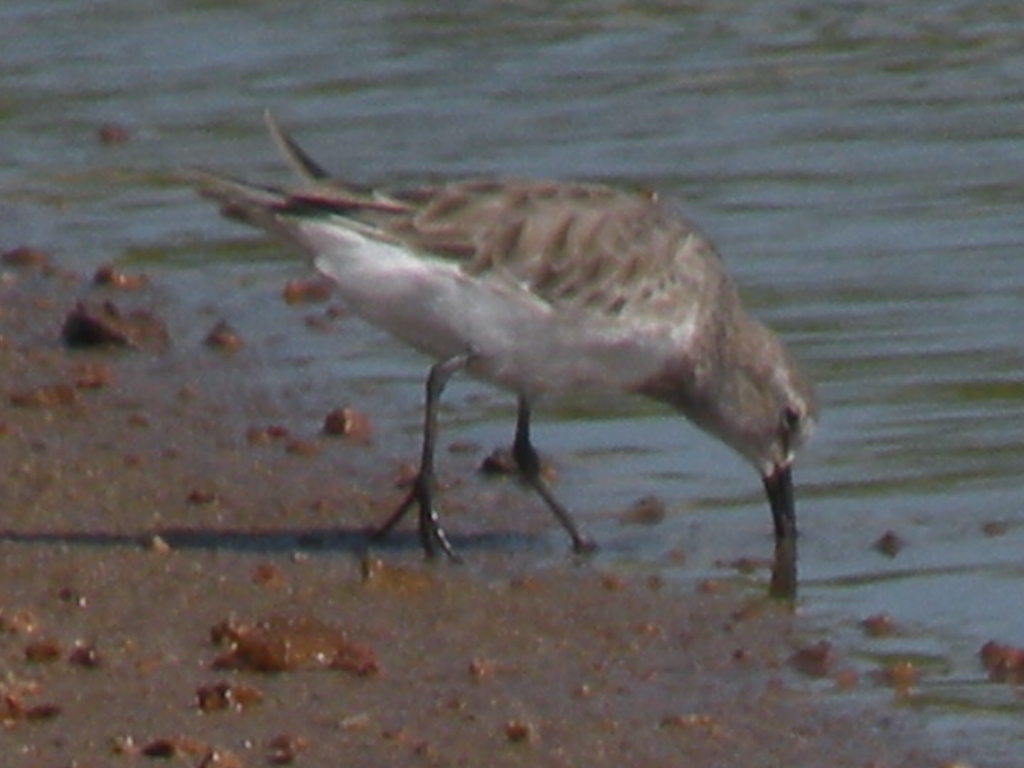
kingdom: Animalia
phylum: Chordata
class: Aves
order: Charadriiformes
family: Scolopacidae
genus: Calidris
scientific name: Calidris fuscicollis
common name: White-rumped sandpiper
